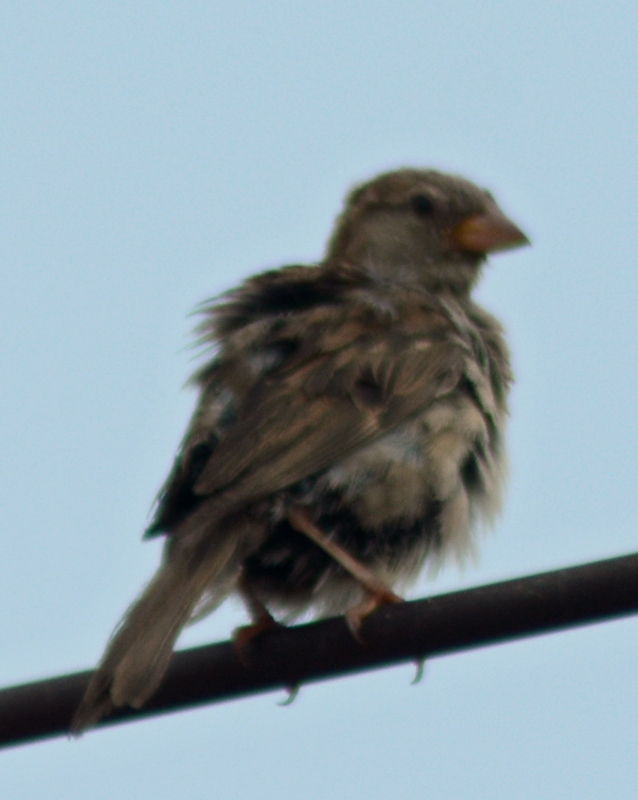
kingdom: Animalia
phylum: Chordata
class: Aves
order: Passeriformes
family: Passeridae
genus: Passer
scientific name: Passer domesticus
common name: House sparrow
